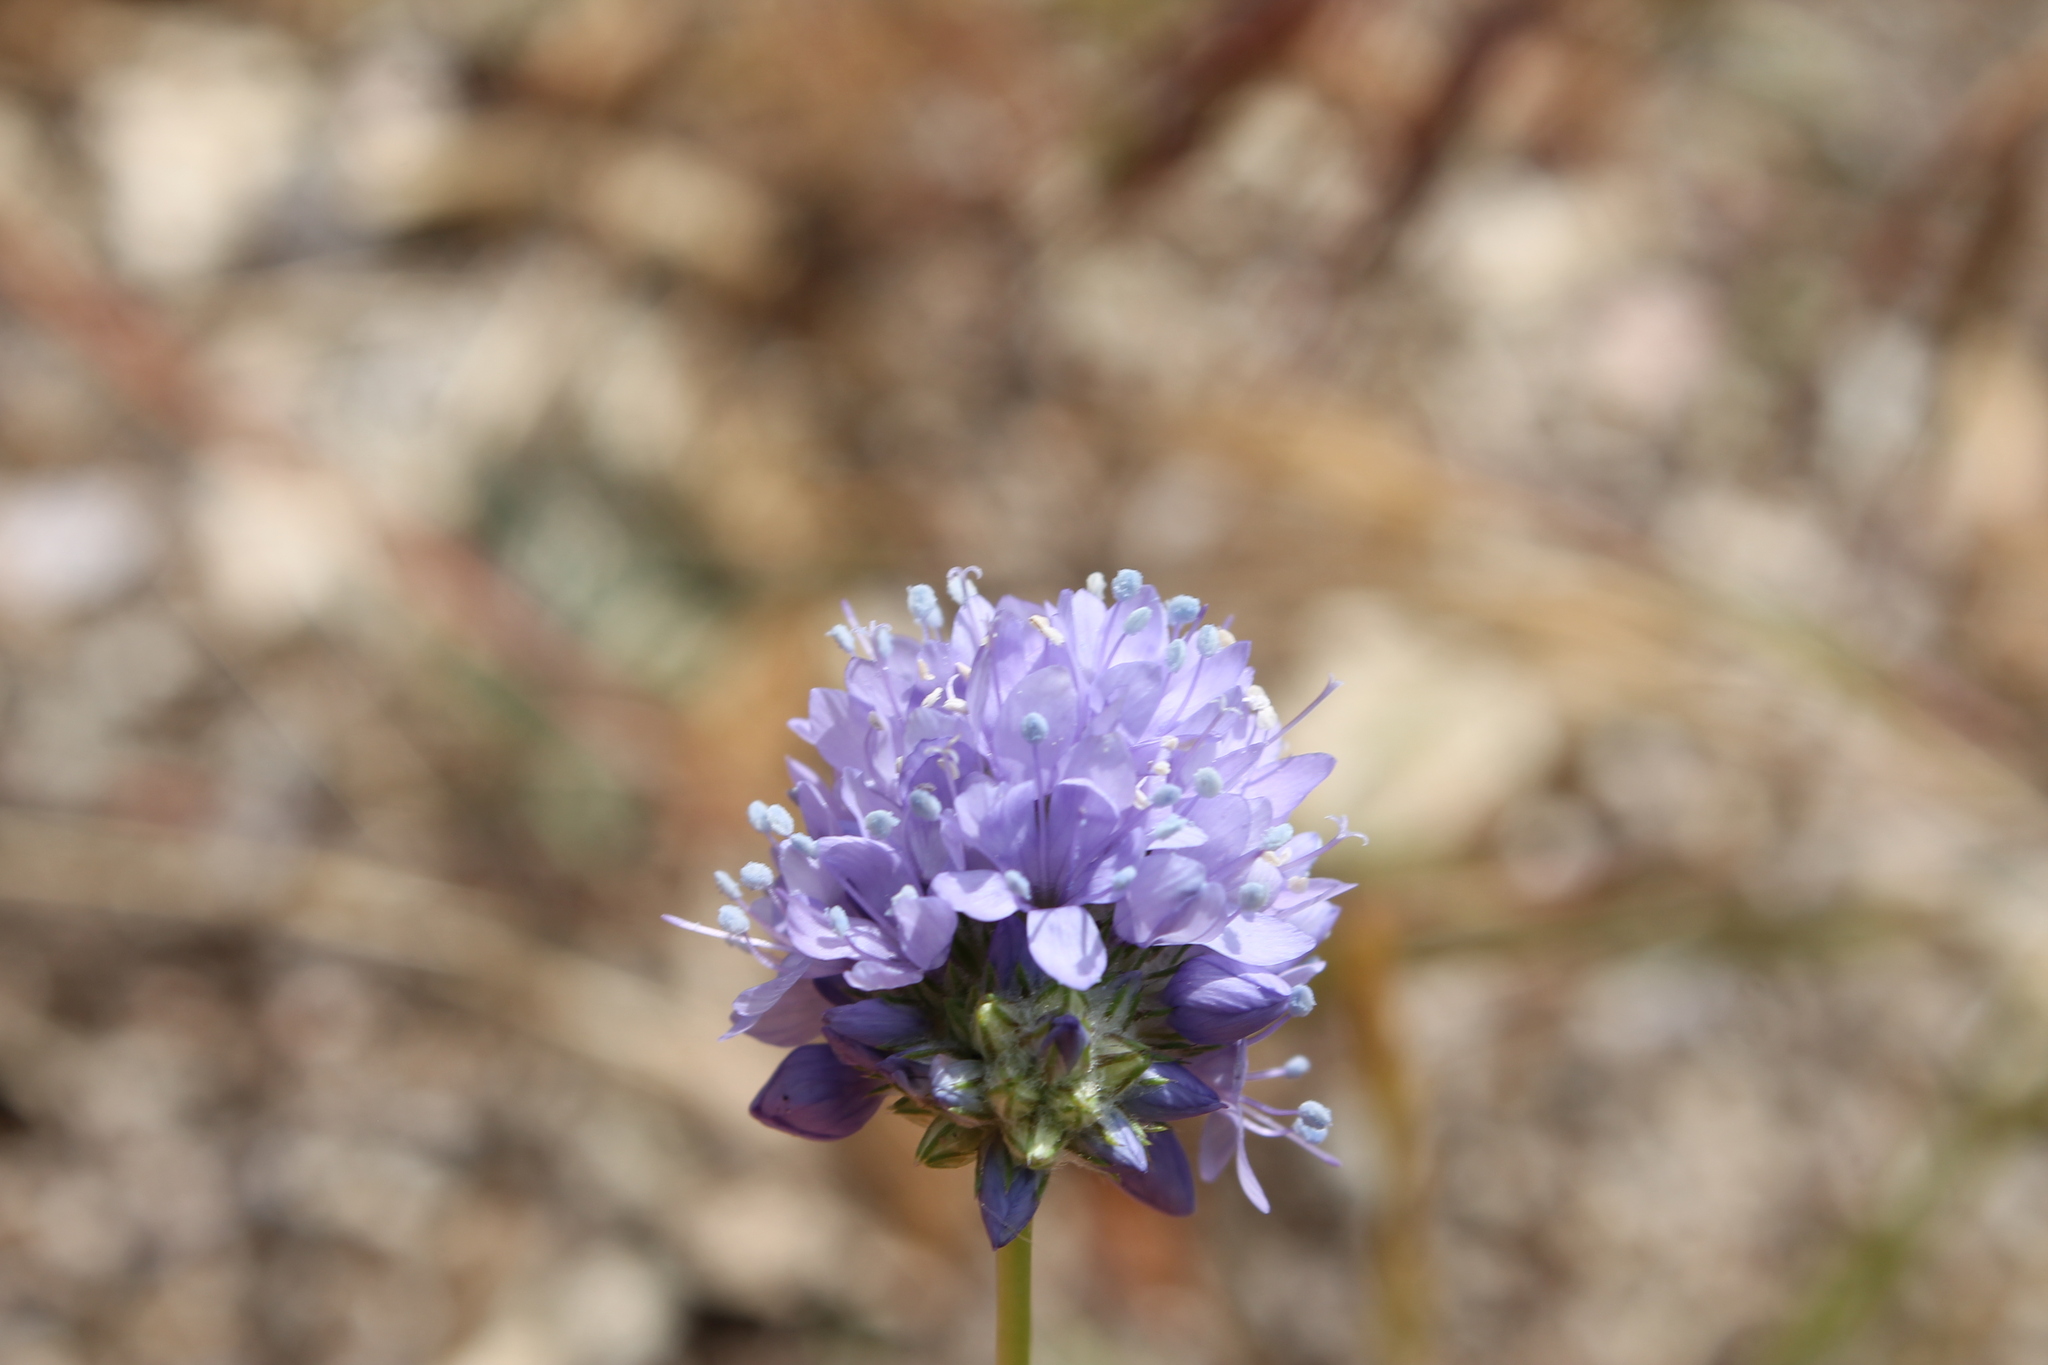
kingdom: Plantae
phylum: Tracheophyta
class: Magnoliopsida
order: Ericales
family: Polemoniaceae
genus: Gilia
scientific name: Gilia capitata
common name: Bluehead gilia
